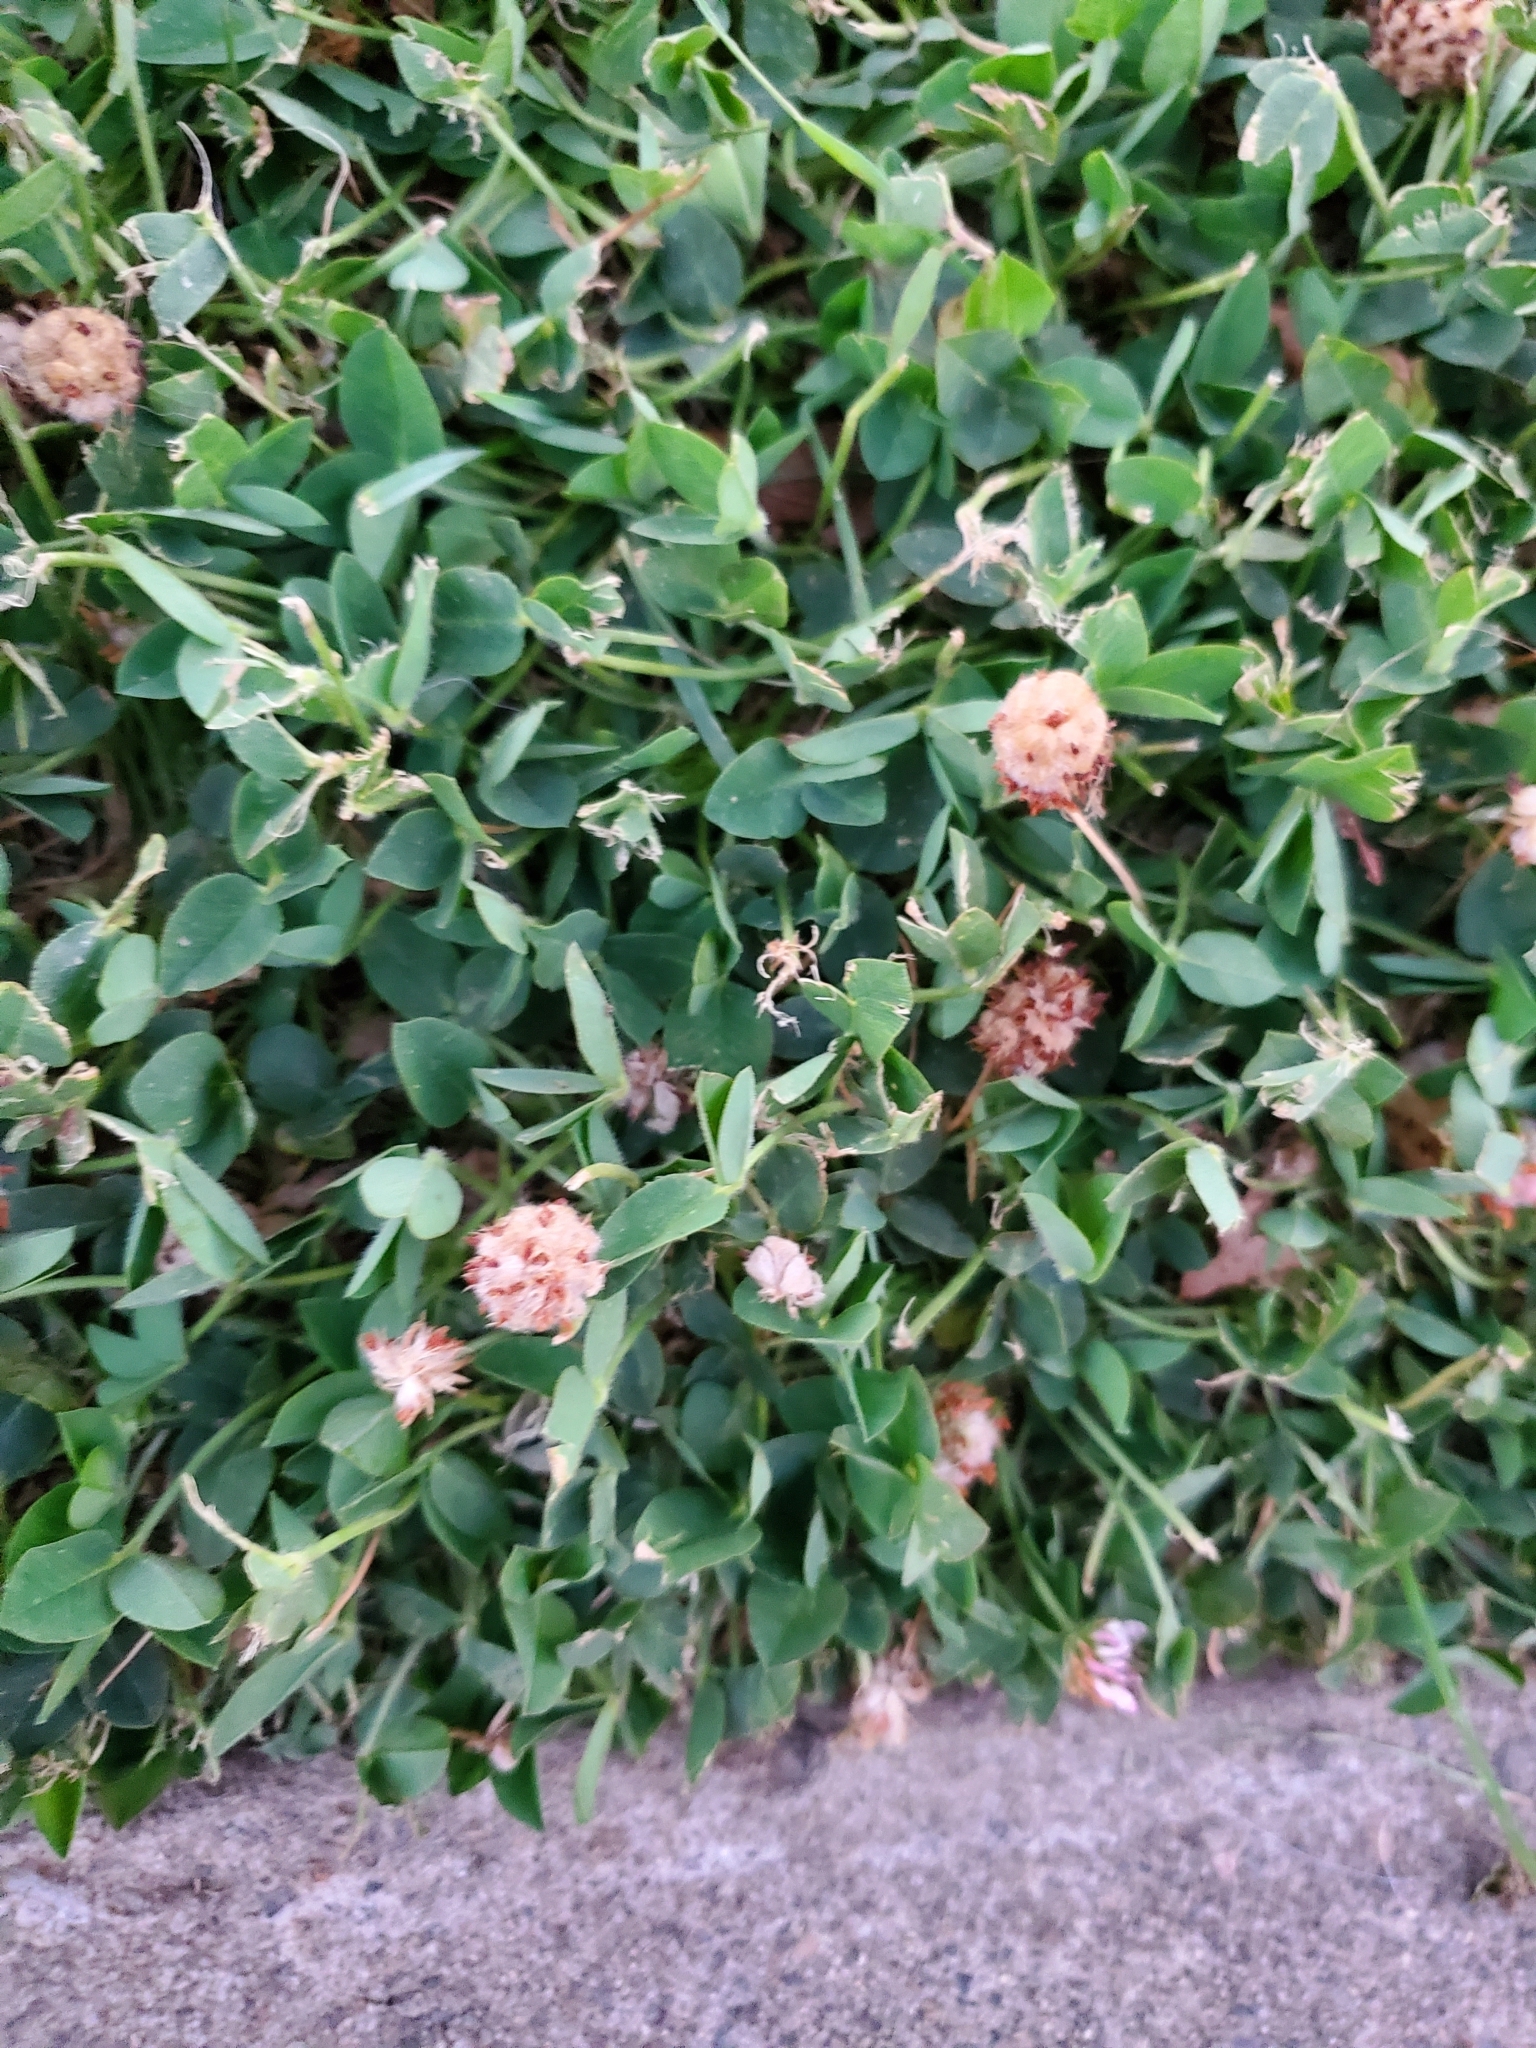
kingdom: Plantae
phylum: Tracheophyta
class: Magnoliopsida
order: Fabales
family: Fabaceae
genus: Trifolium
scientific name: Trifolium fragiferum
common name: Strawberry clover
